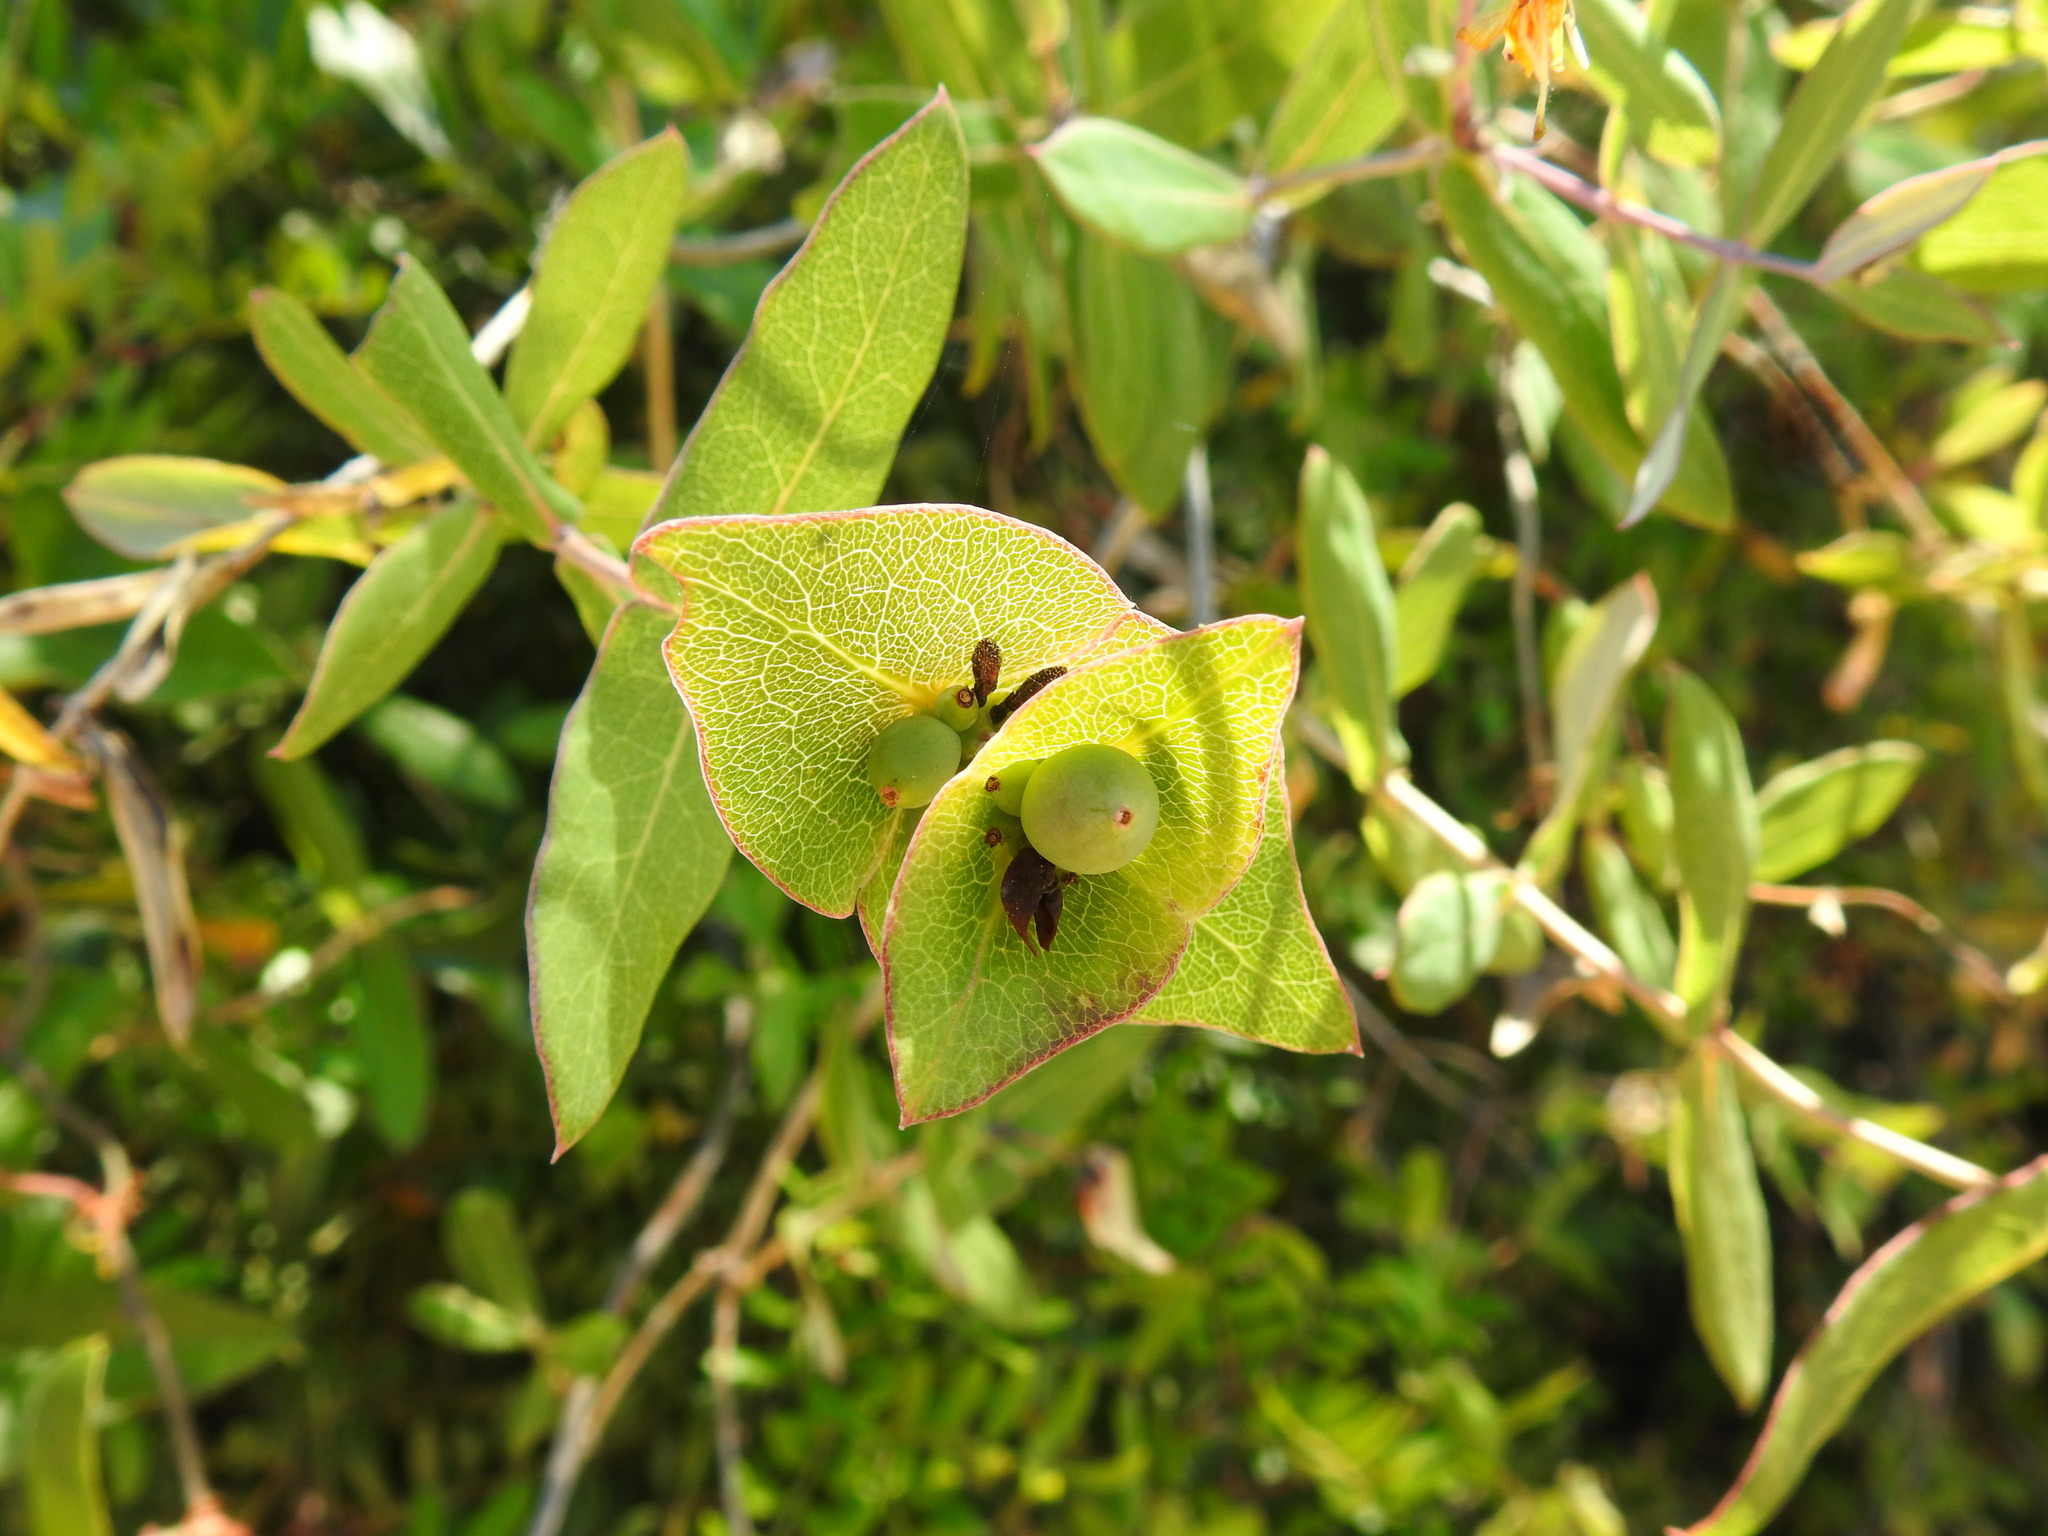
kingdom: Plantae
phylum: Tracheophyta
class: Magnoliopsida
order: Dipsacales
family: Caprifoliaceae
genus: Lonicera
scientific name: Lonicera implexa
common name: Minorca honeysuckle
